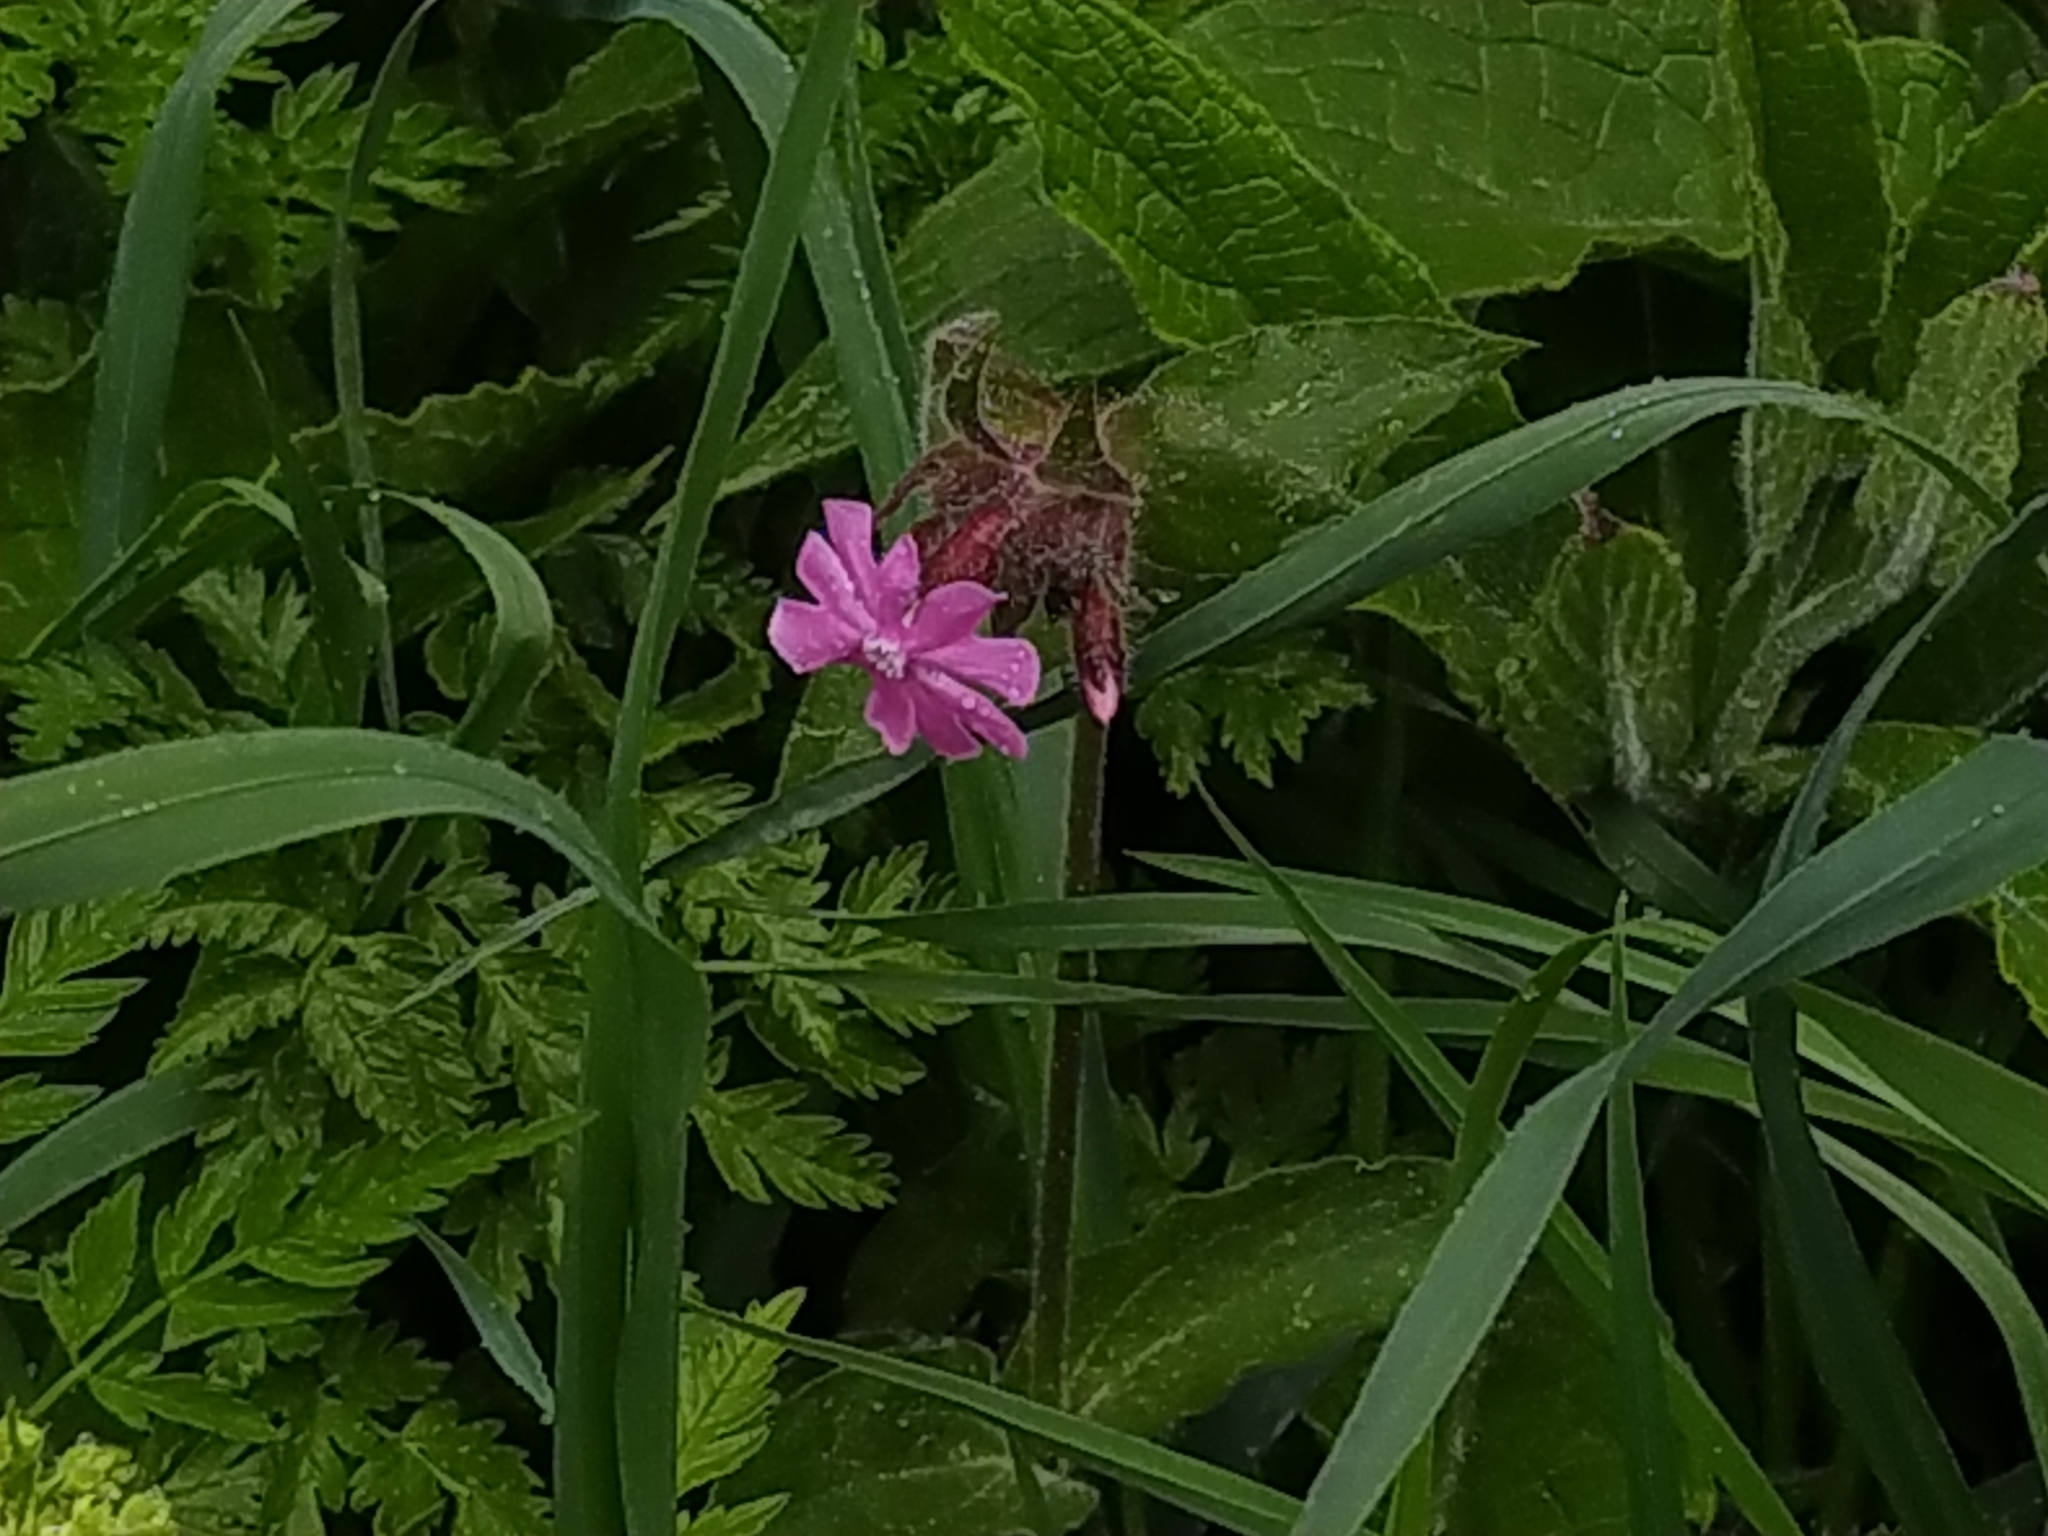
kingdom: Plantae
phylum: Tracheophyta
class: Magnoliopsida
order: Caryophyllales
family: Caryophyllaceae
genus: Silene
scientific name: Silene dioica
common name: Red campion
